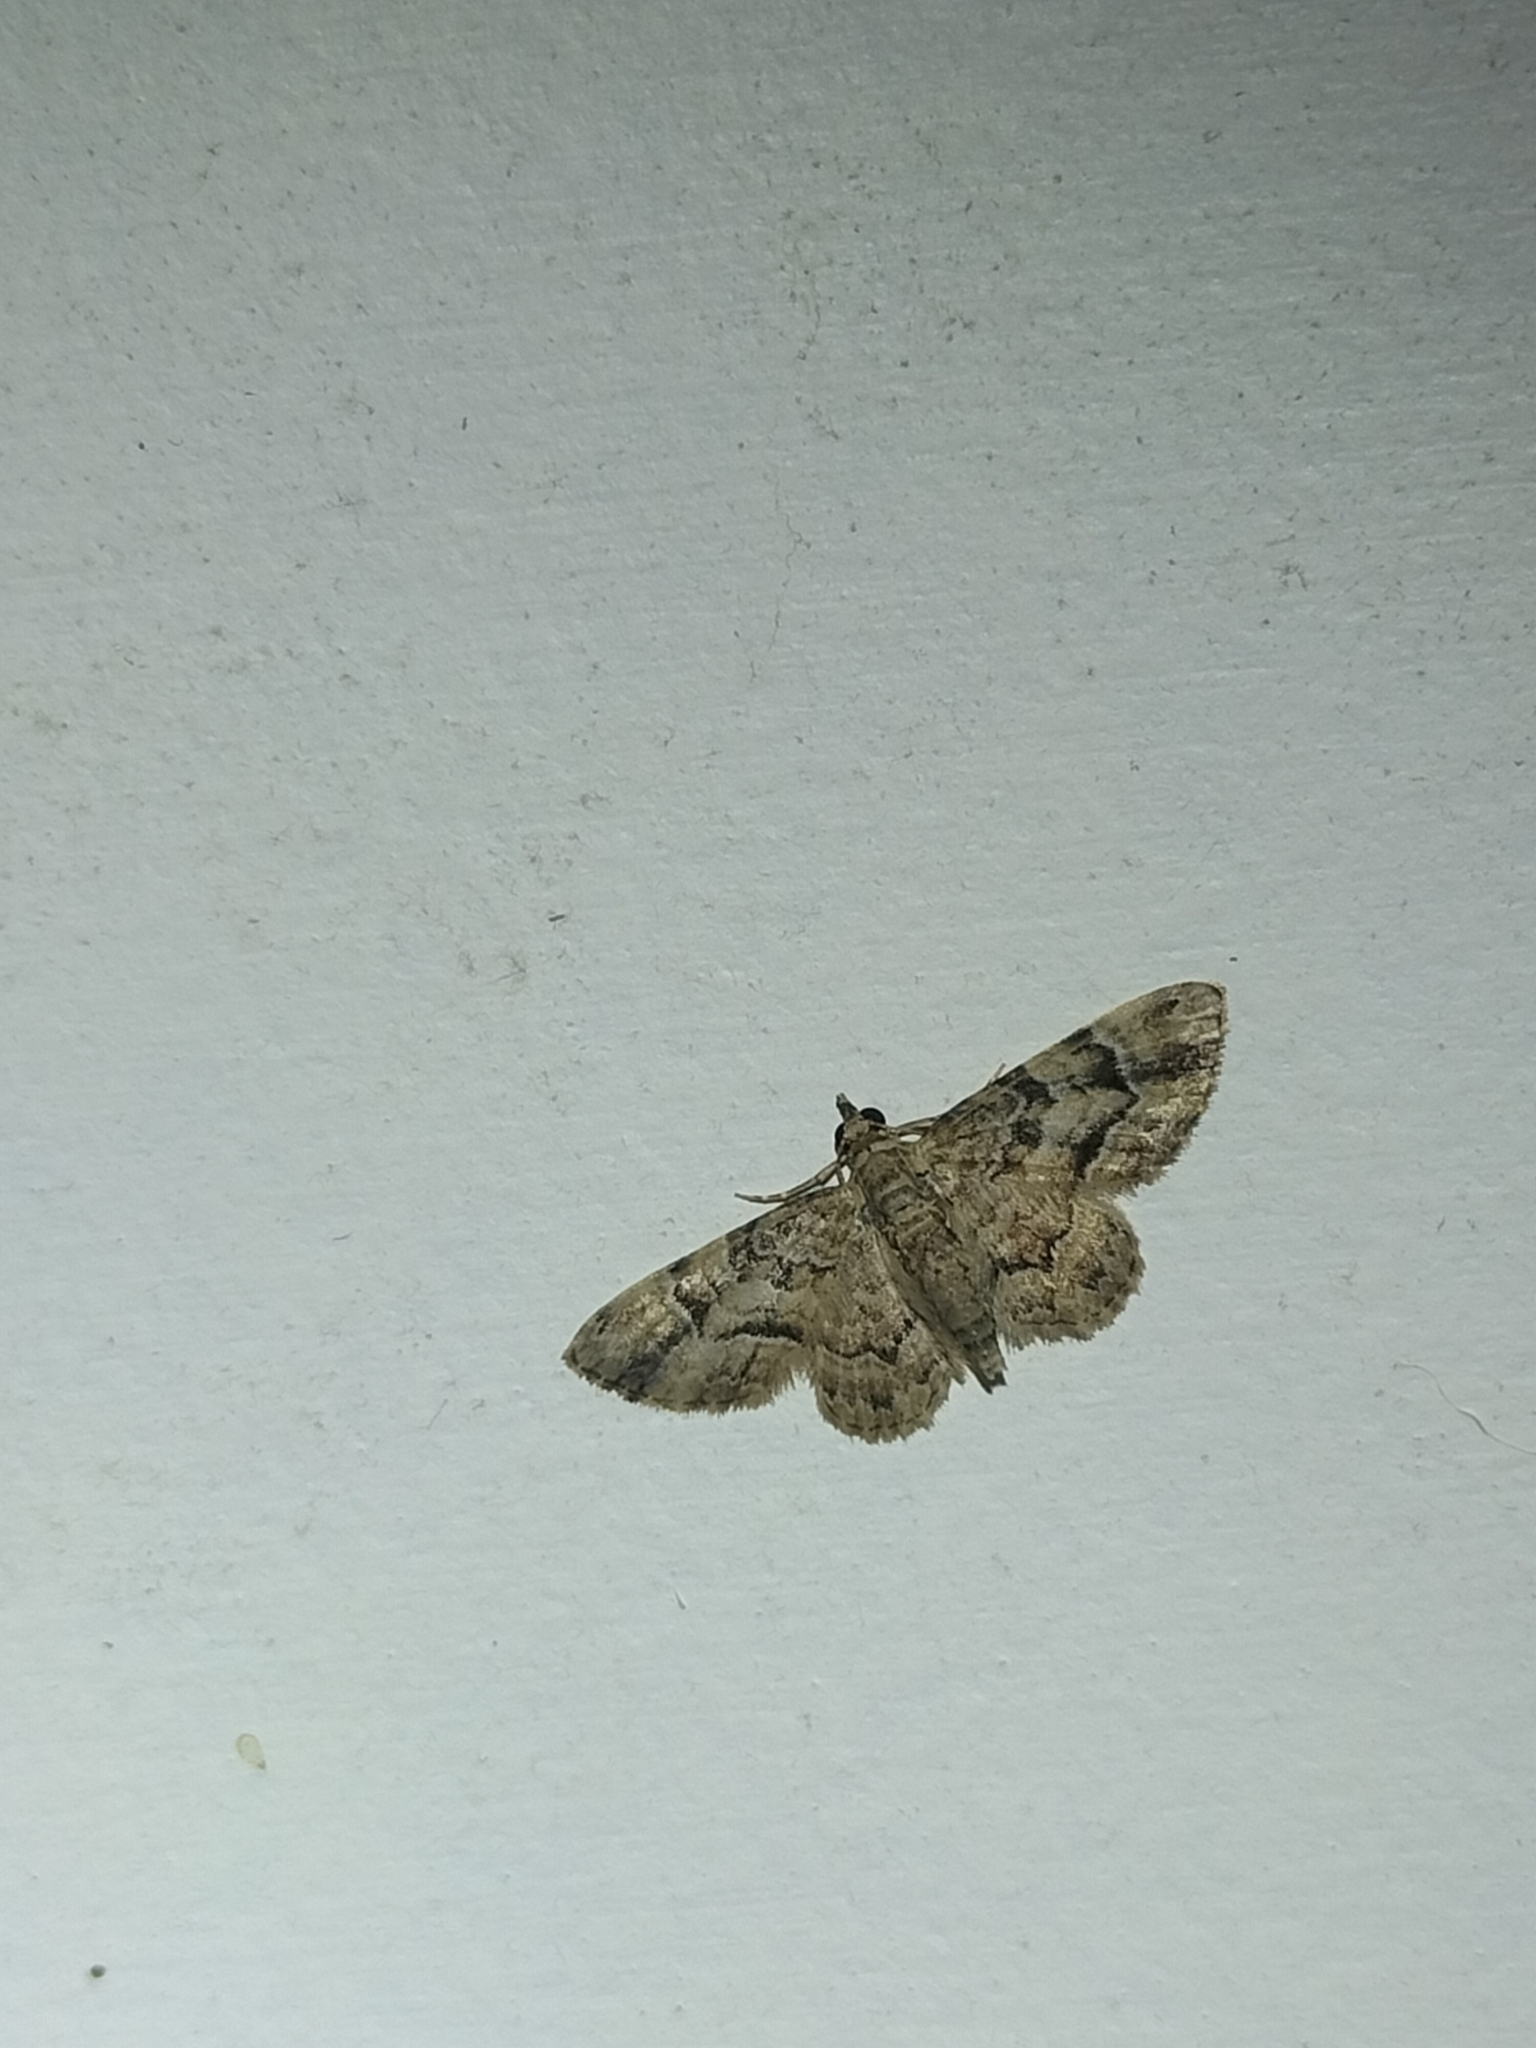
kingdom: Animalia
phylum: Arthropoda
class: Insecta
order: Lepidoptera
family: Geometridae
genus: Gymnoscelis
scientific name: Gymnoscelis lophopus
